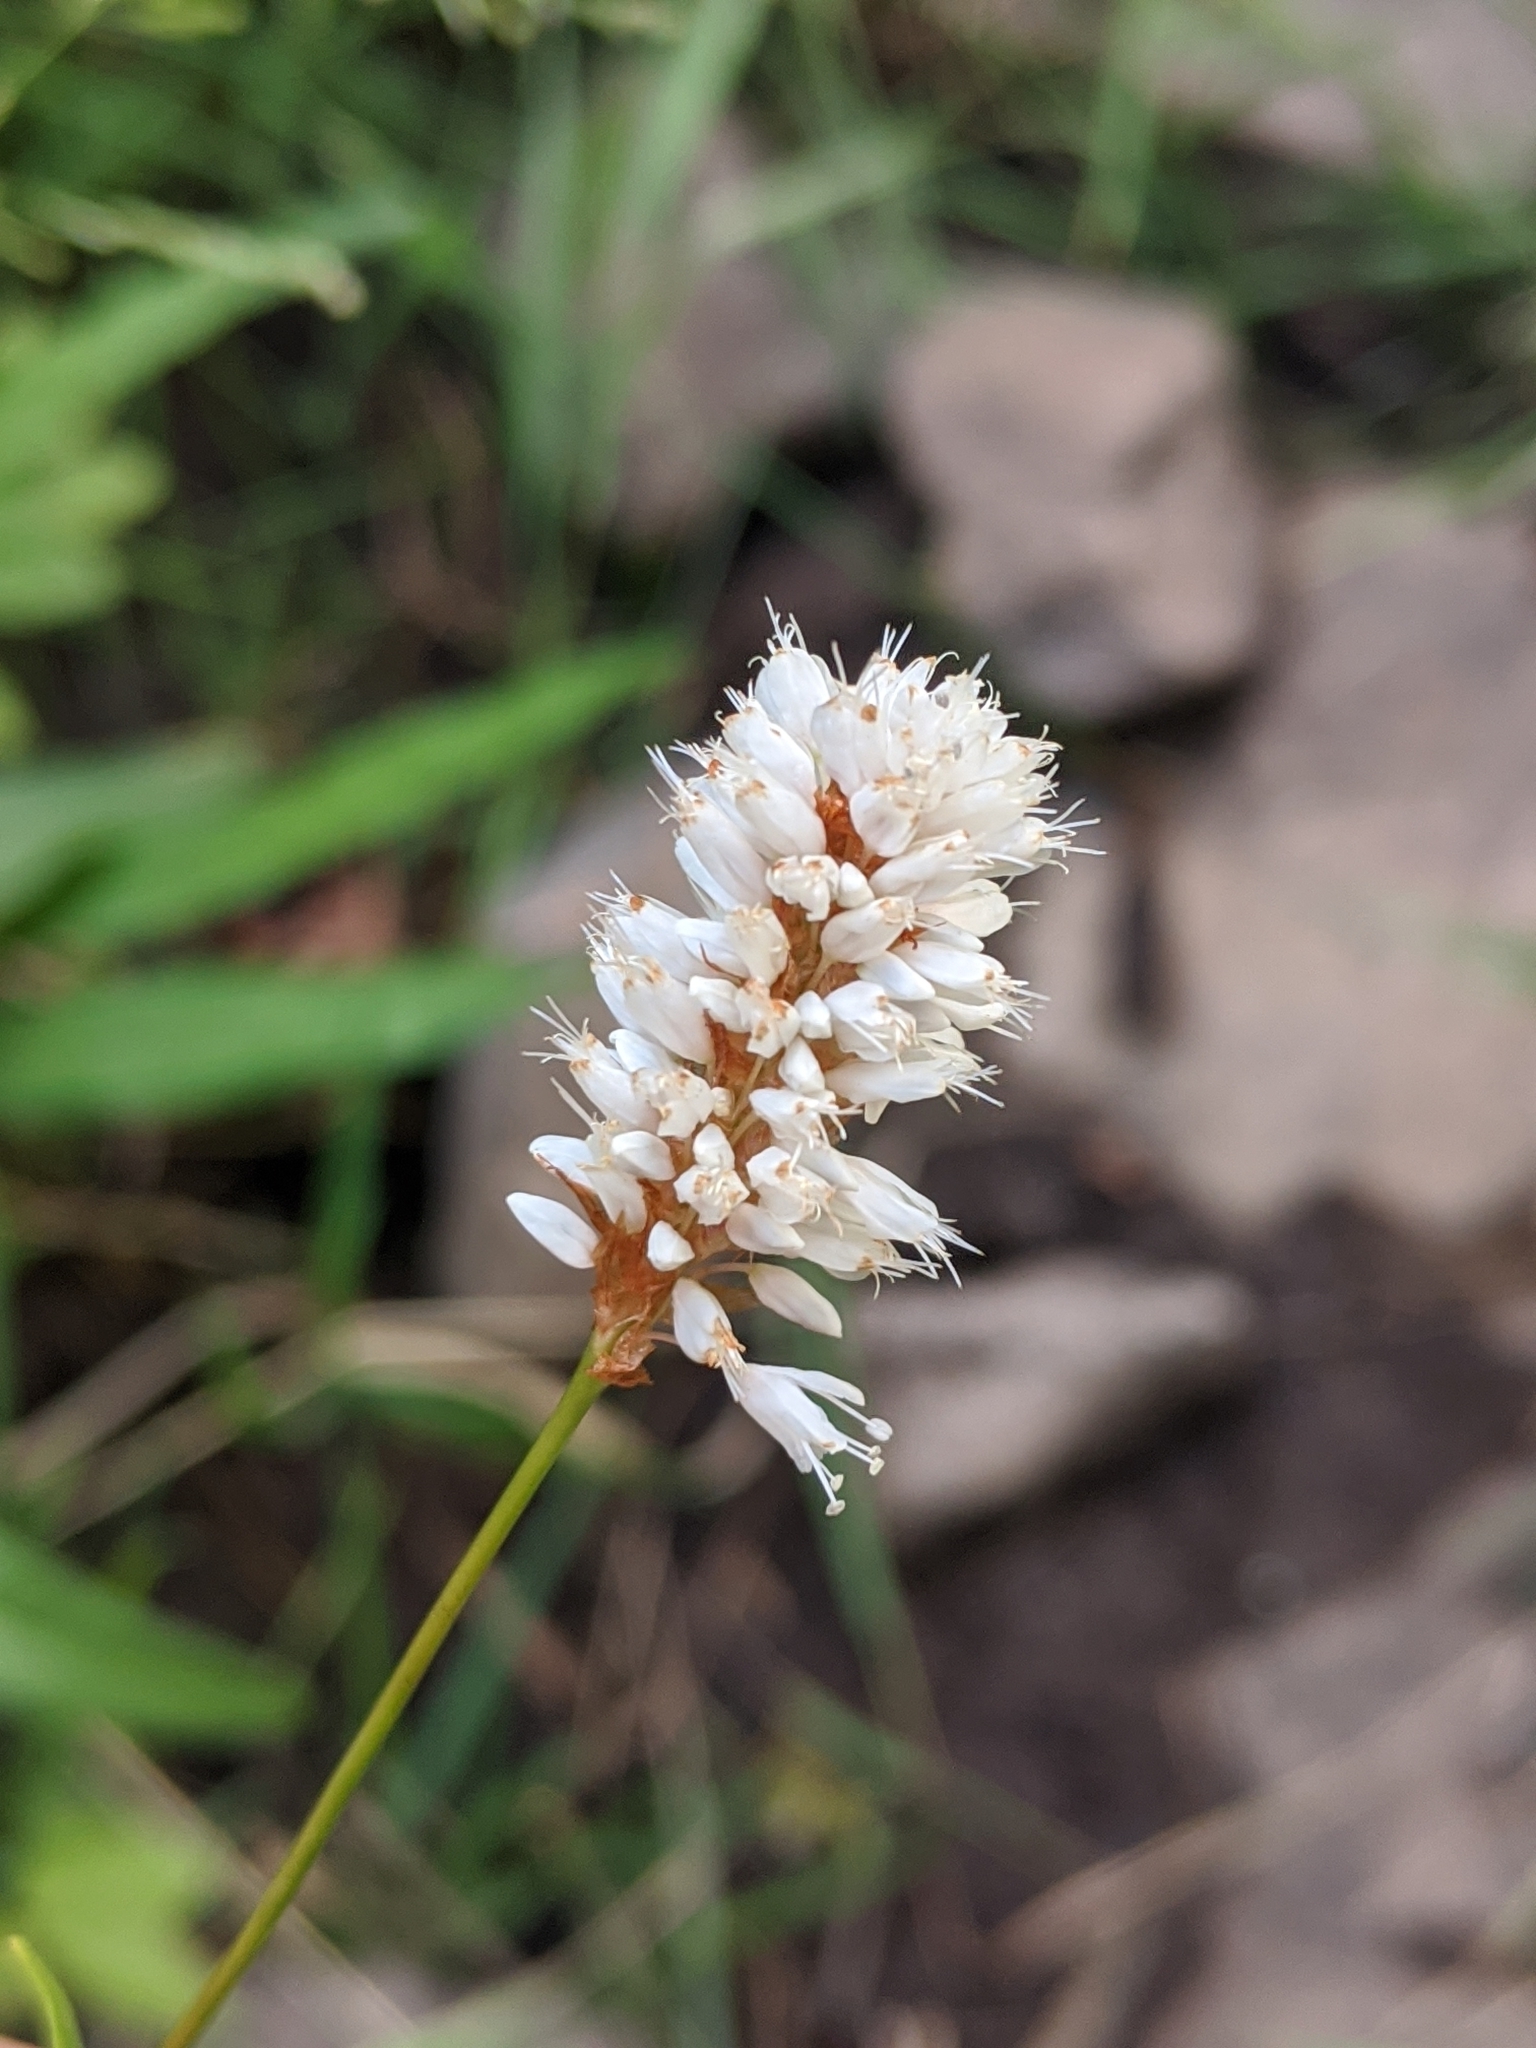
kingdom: Plantae
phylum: Tracheophyta
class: Magnoliopsida
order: Caryophyllales
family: Polygonaceae
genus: Bistorta
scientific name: Bistorta bistortoides
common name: American bistort
